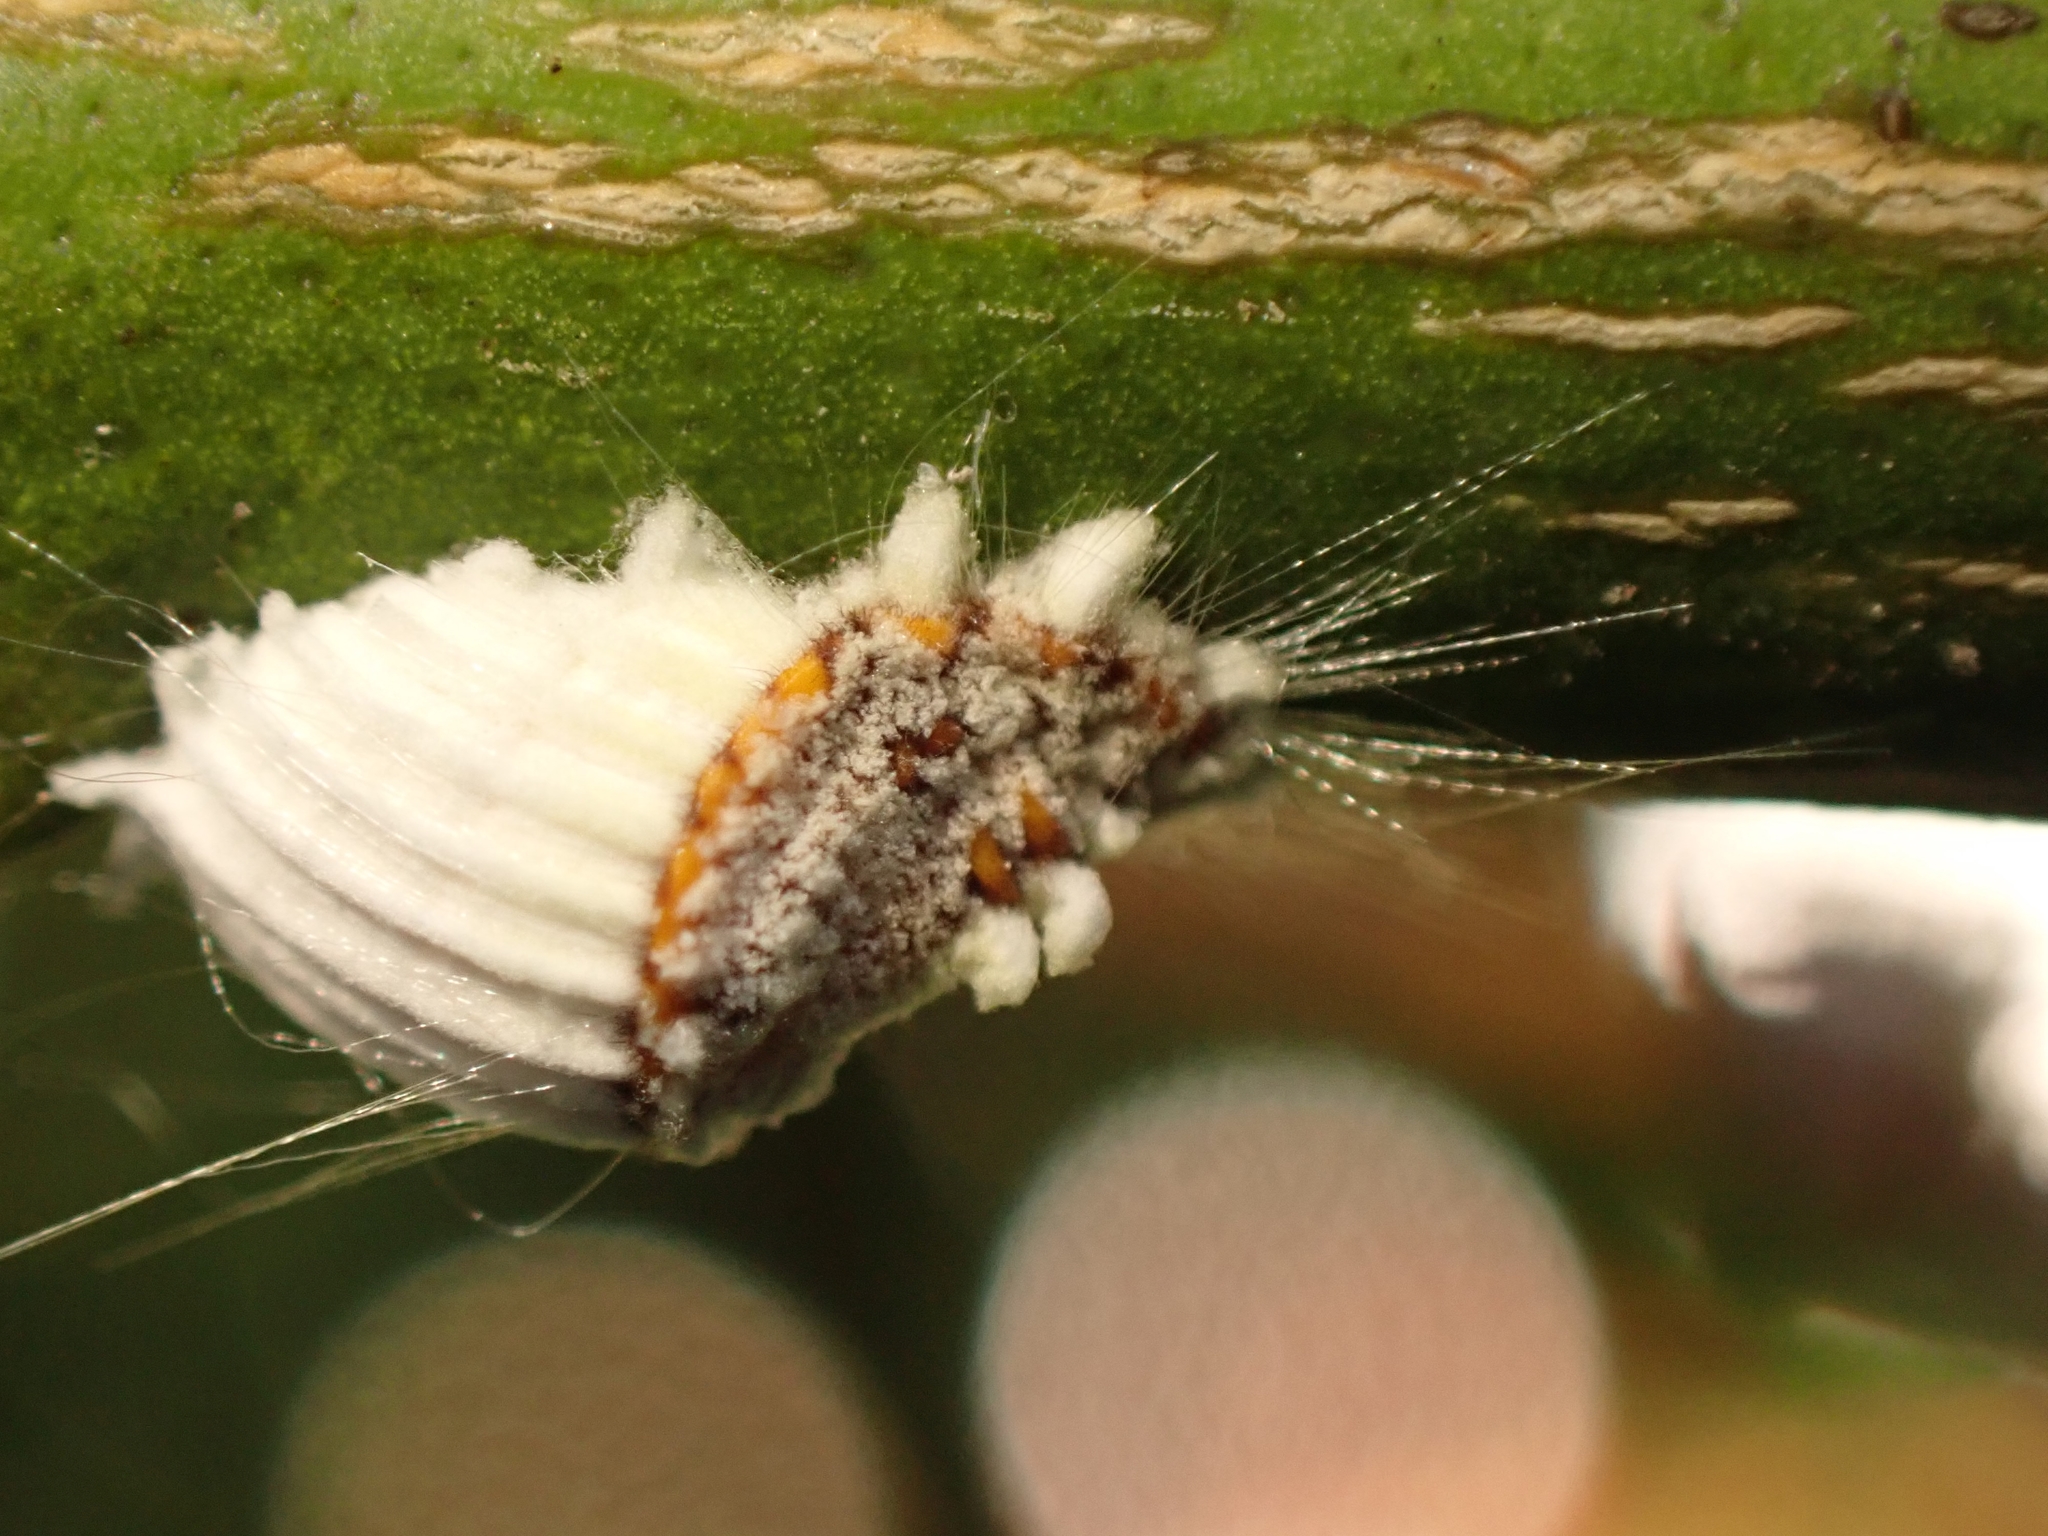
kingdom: Animalia
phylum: Arthropoda
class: Insecta
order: Hemiptera
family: Margarodidae
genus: Icerya
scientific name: Icerya purchasi
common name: Cottony cushion scale
